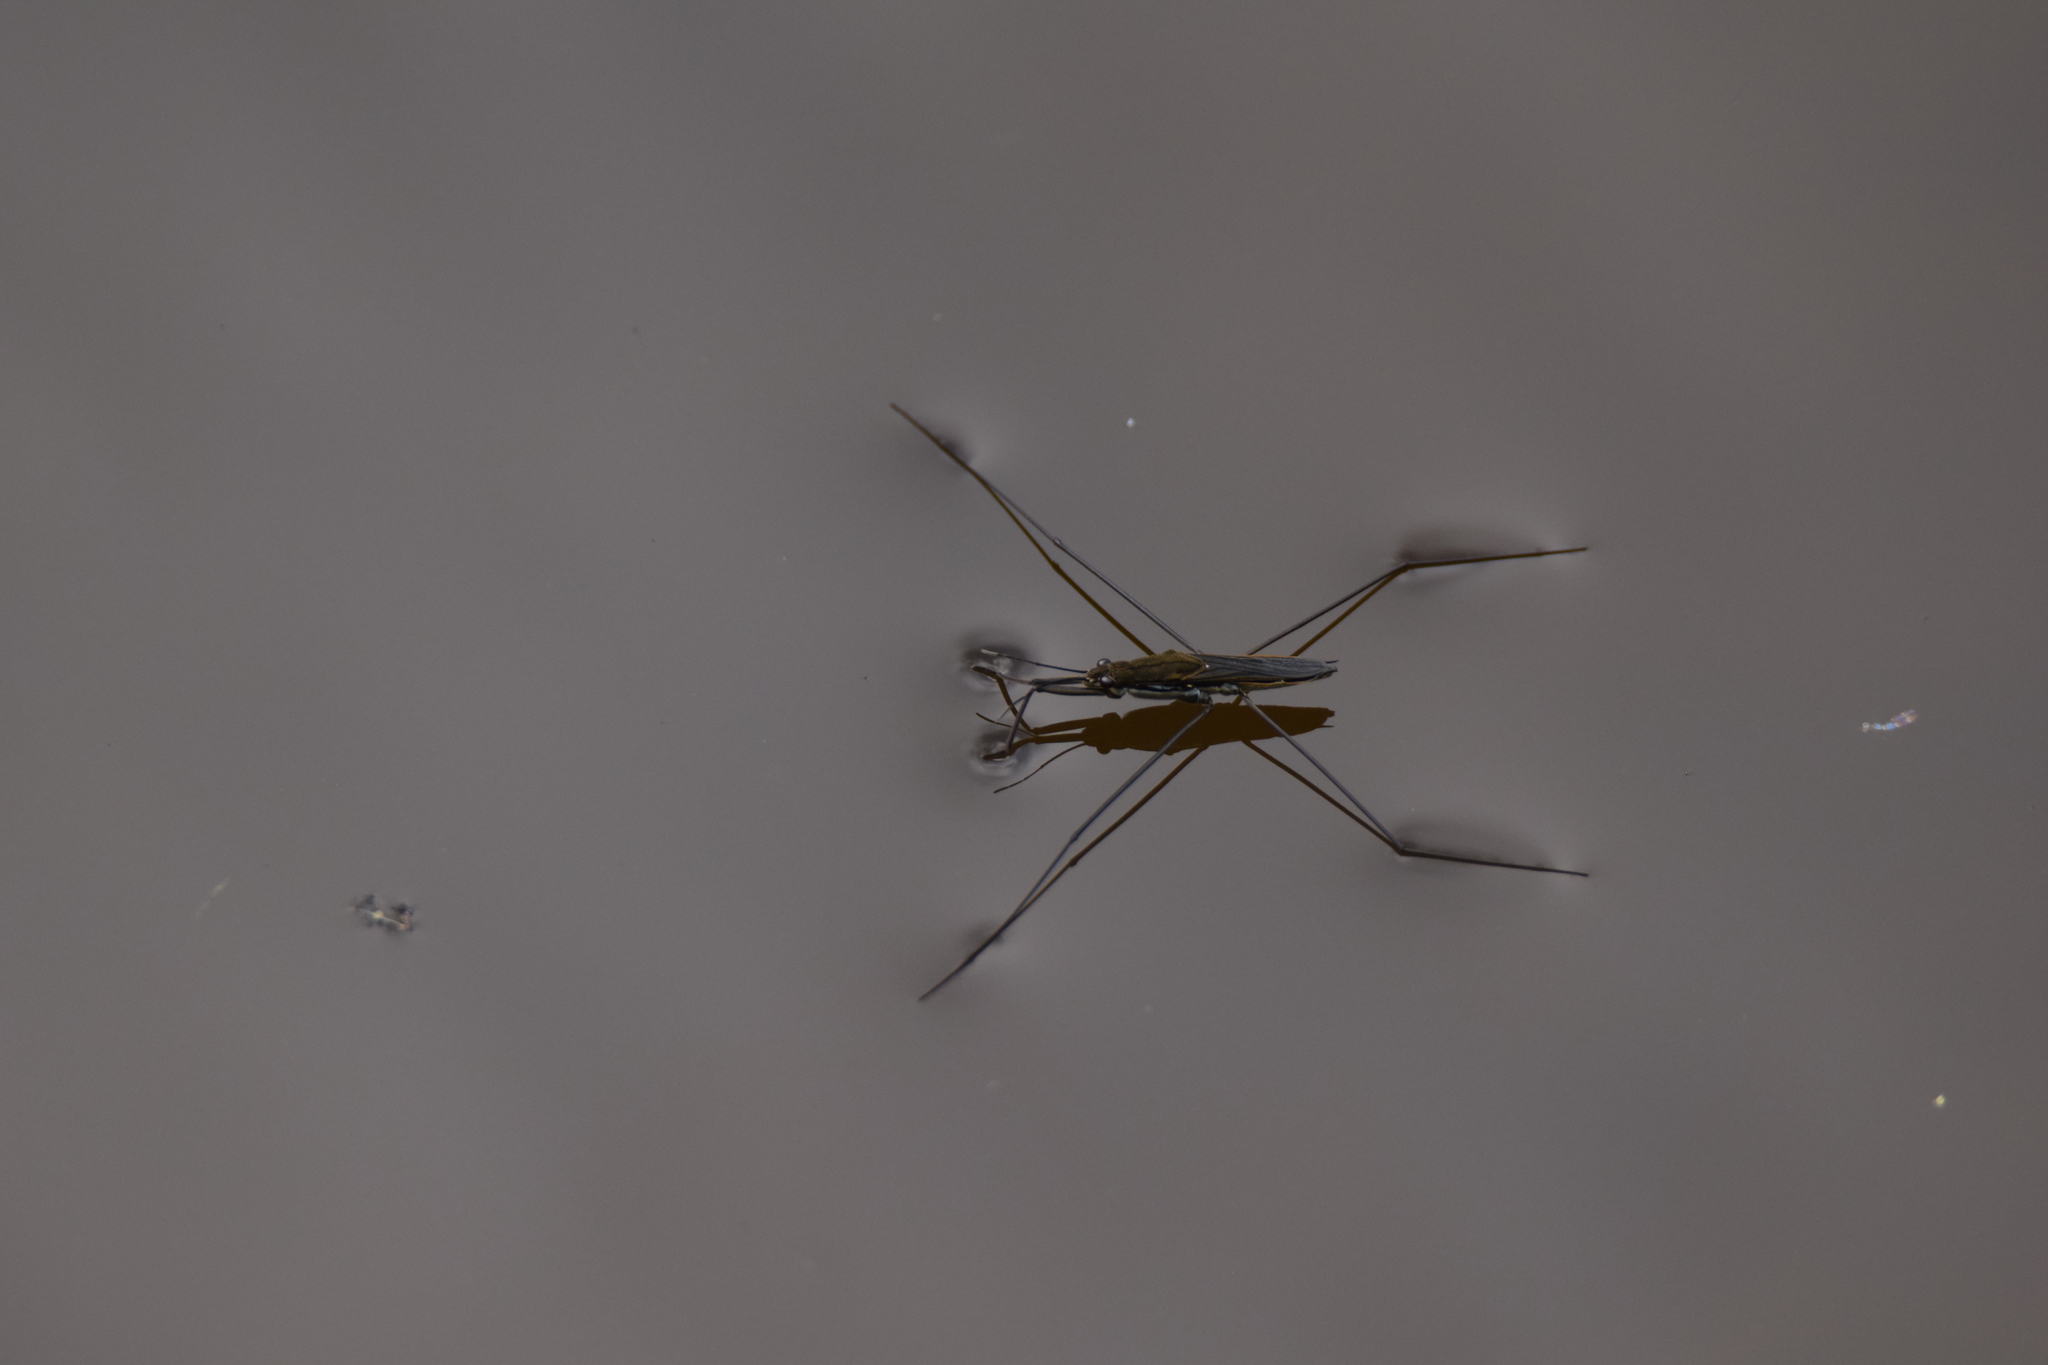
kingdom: Animalia
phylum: Arthropoda
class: Insecta
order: Hemiptera
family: Gerridae
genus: Aquarius
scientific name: Aquarius paludum
